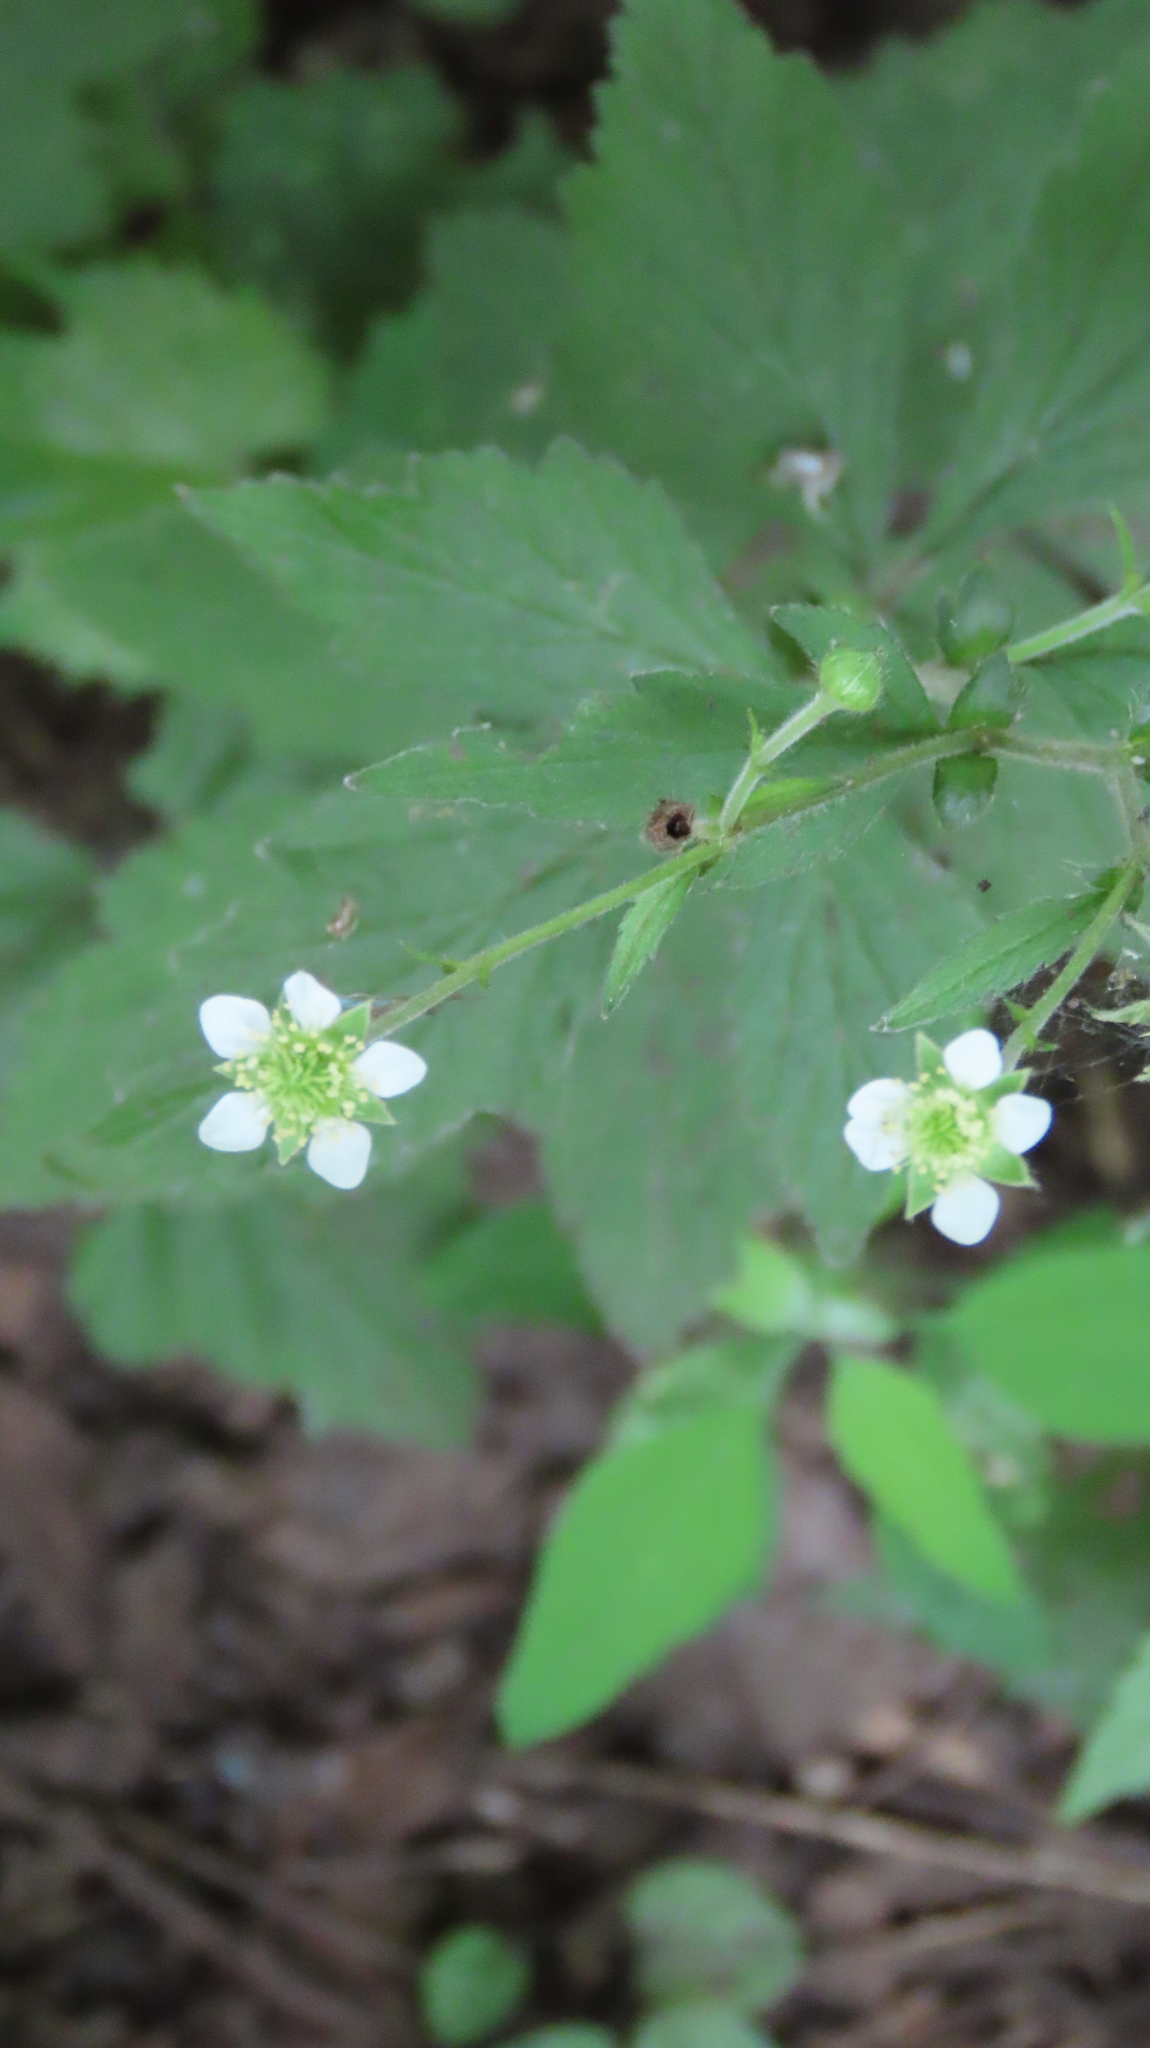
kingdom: Plantae
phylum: Tracheophyta
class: Magnoliopsida
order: Rosales
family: Rosaceae
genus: Geum
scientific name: Geum canadense
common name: White avens
